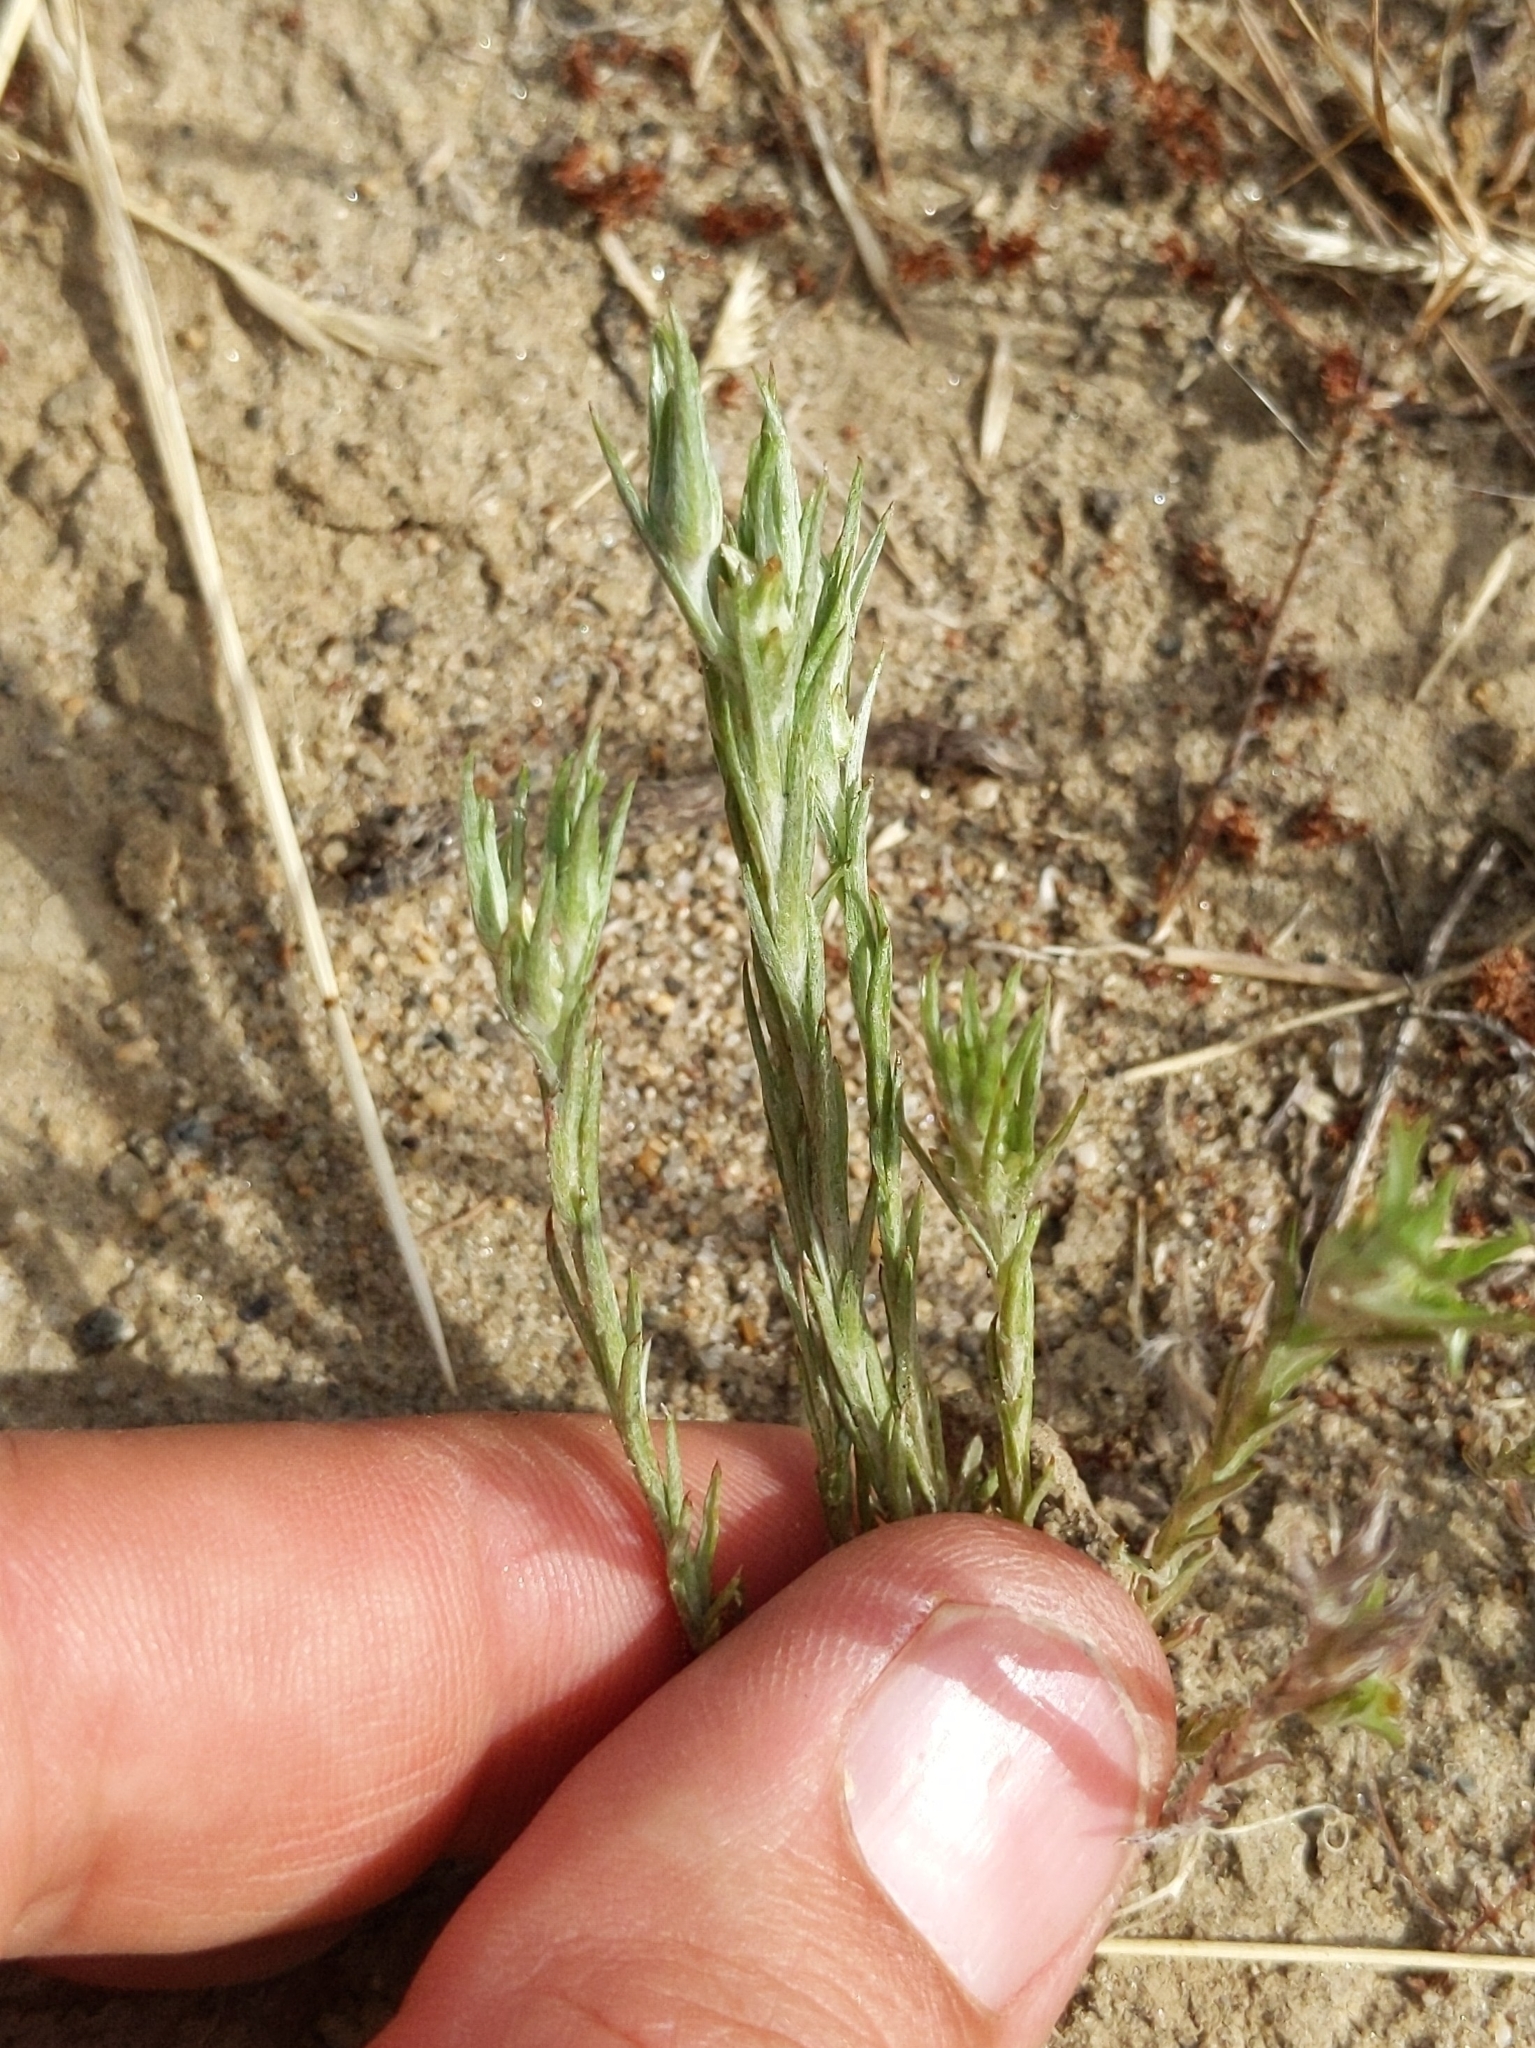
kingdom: Plantae
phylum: Tracheophyta
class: Magnoliopsida
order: Asterales
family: Asteraceae
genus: Logfia
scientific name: Logfia gallica
